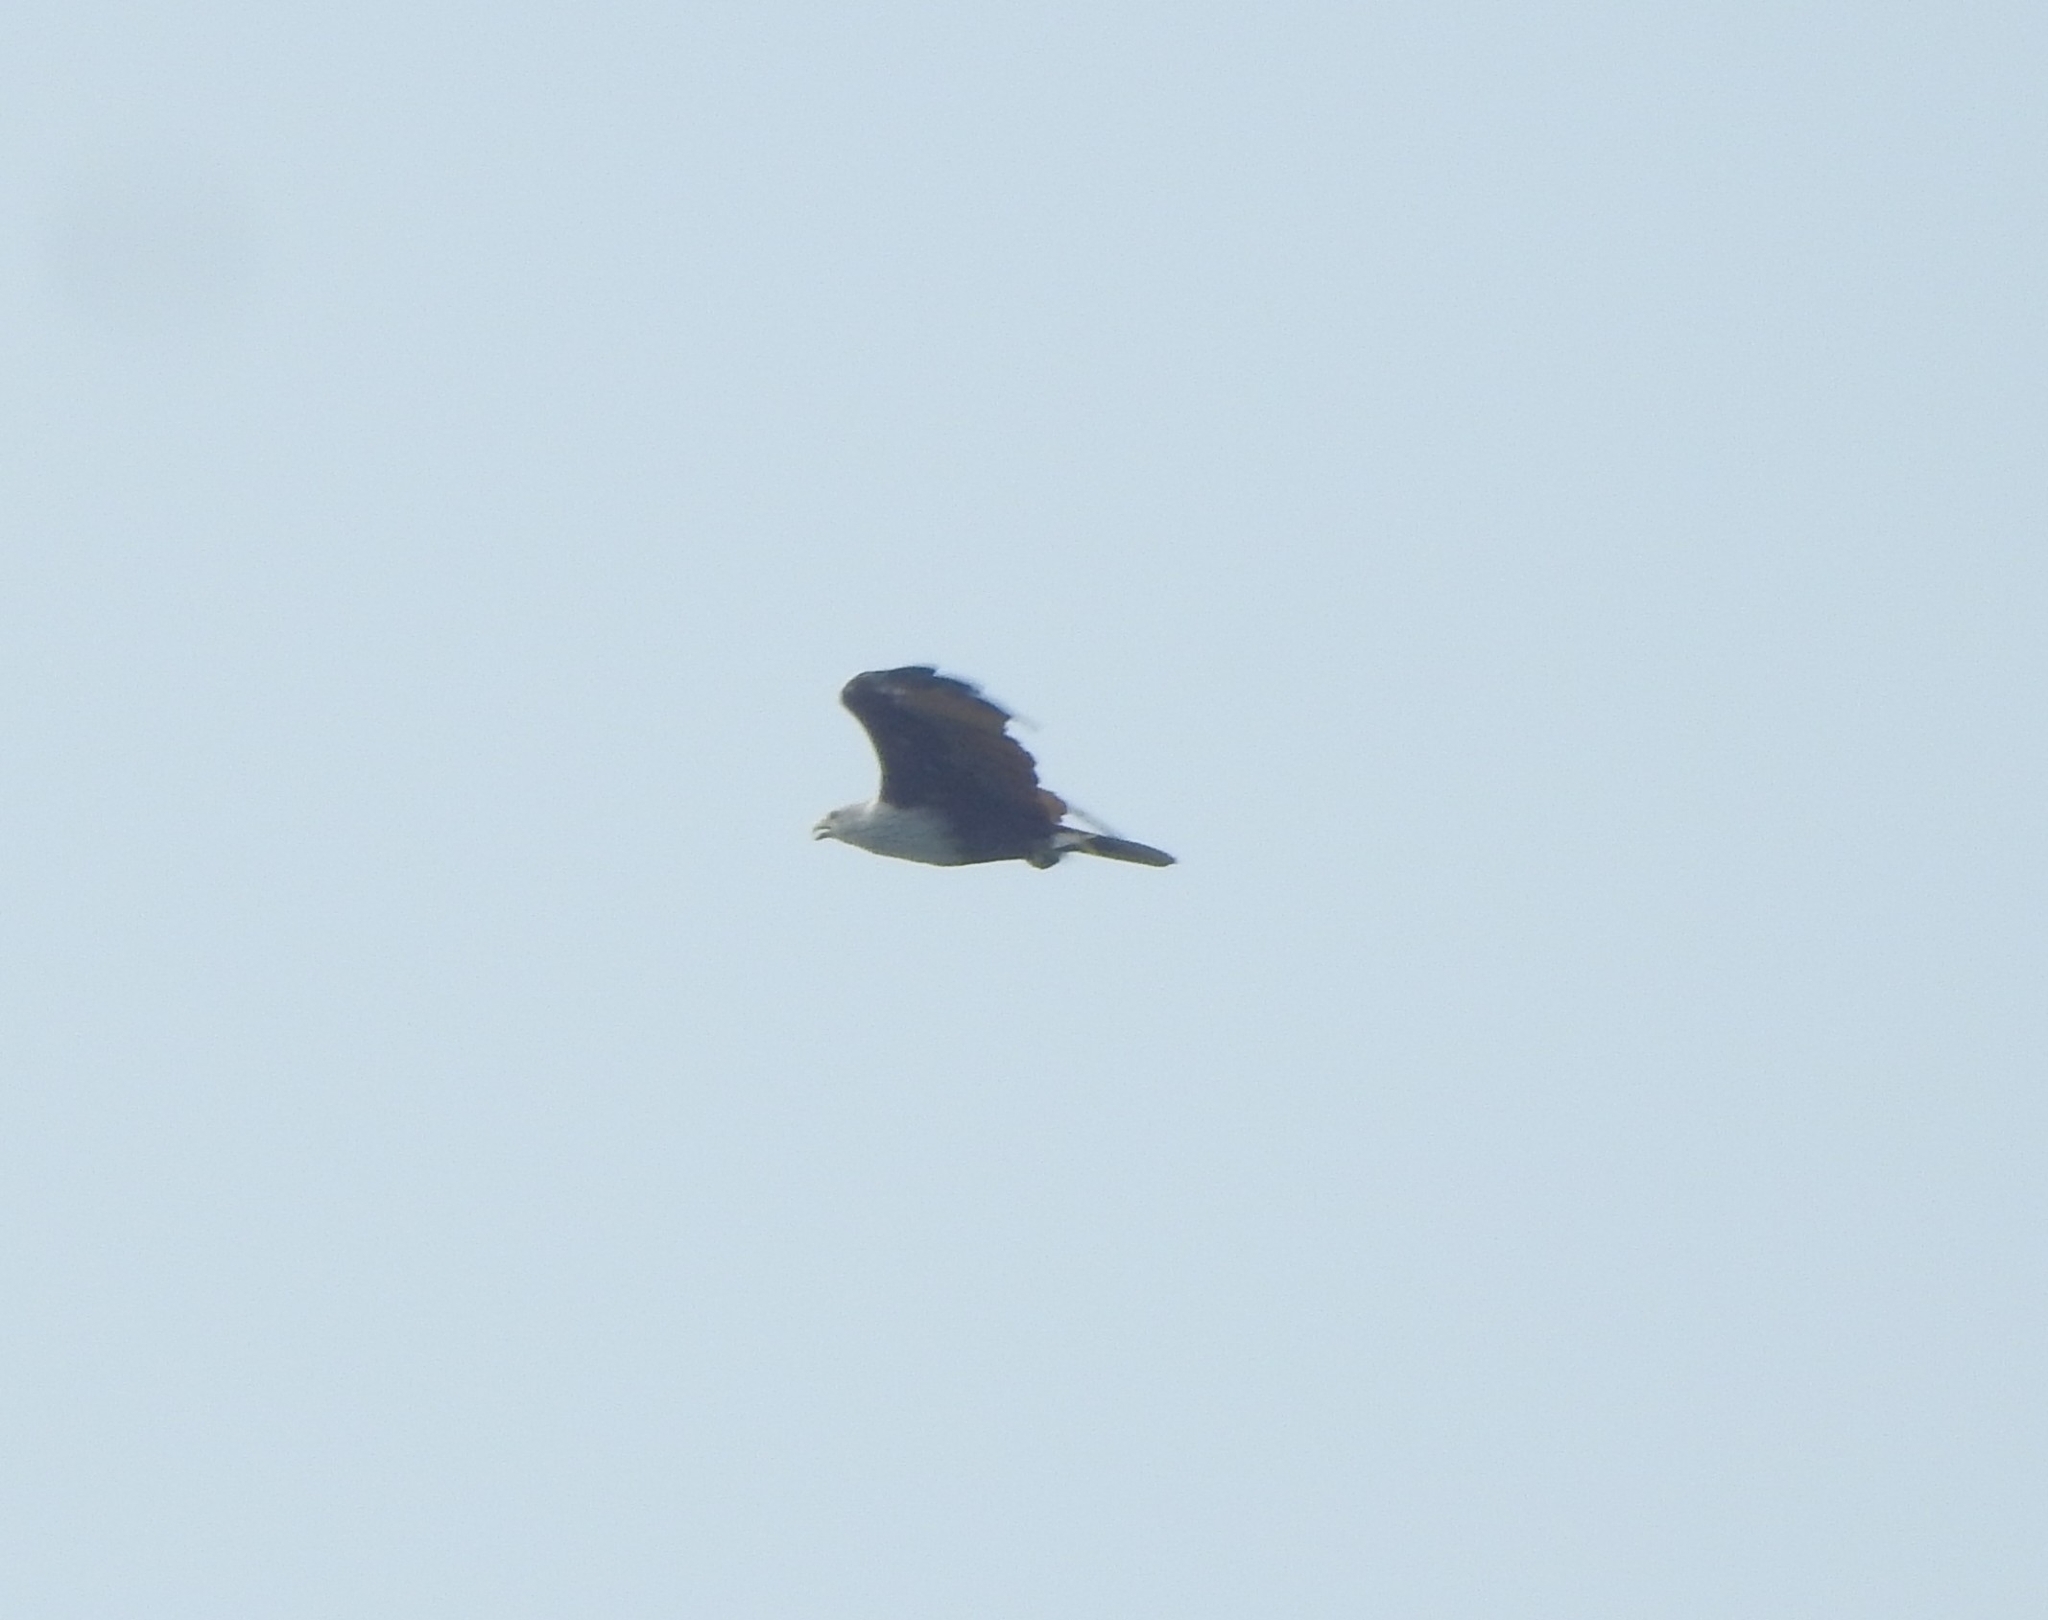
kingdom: Animalia
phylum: Chordata
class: Aves
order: Accipitriformes
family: Accipitridae
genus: Haliastur
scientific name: Haliastur indus
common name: Brahminy kite
